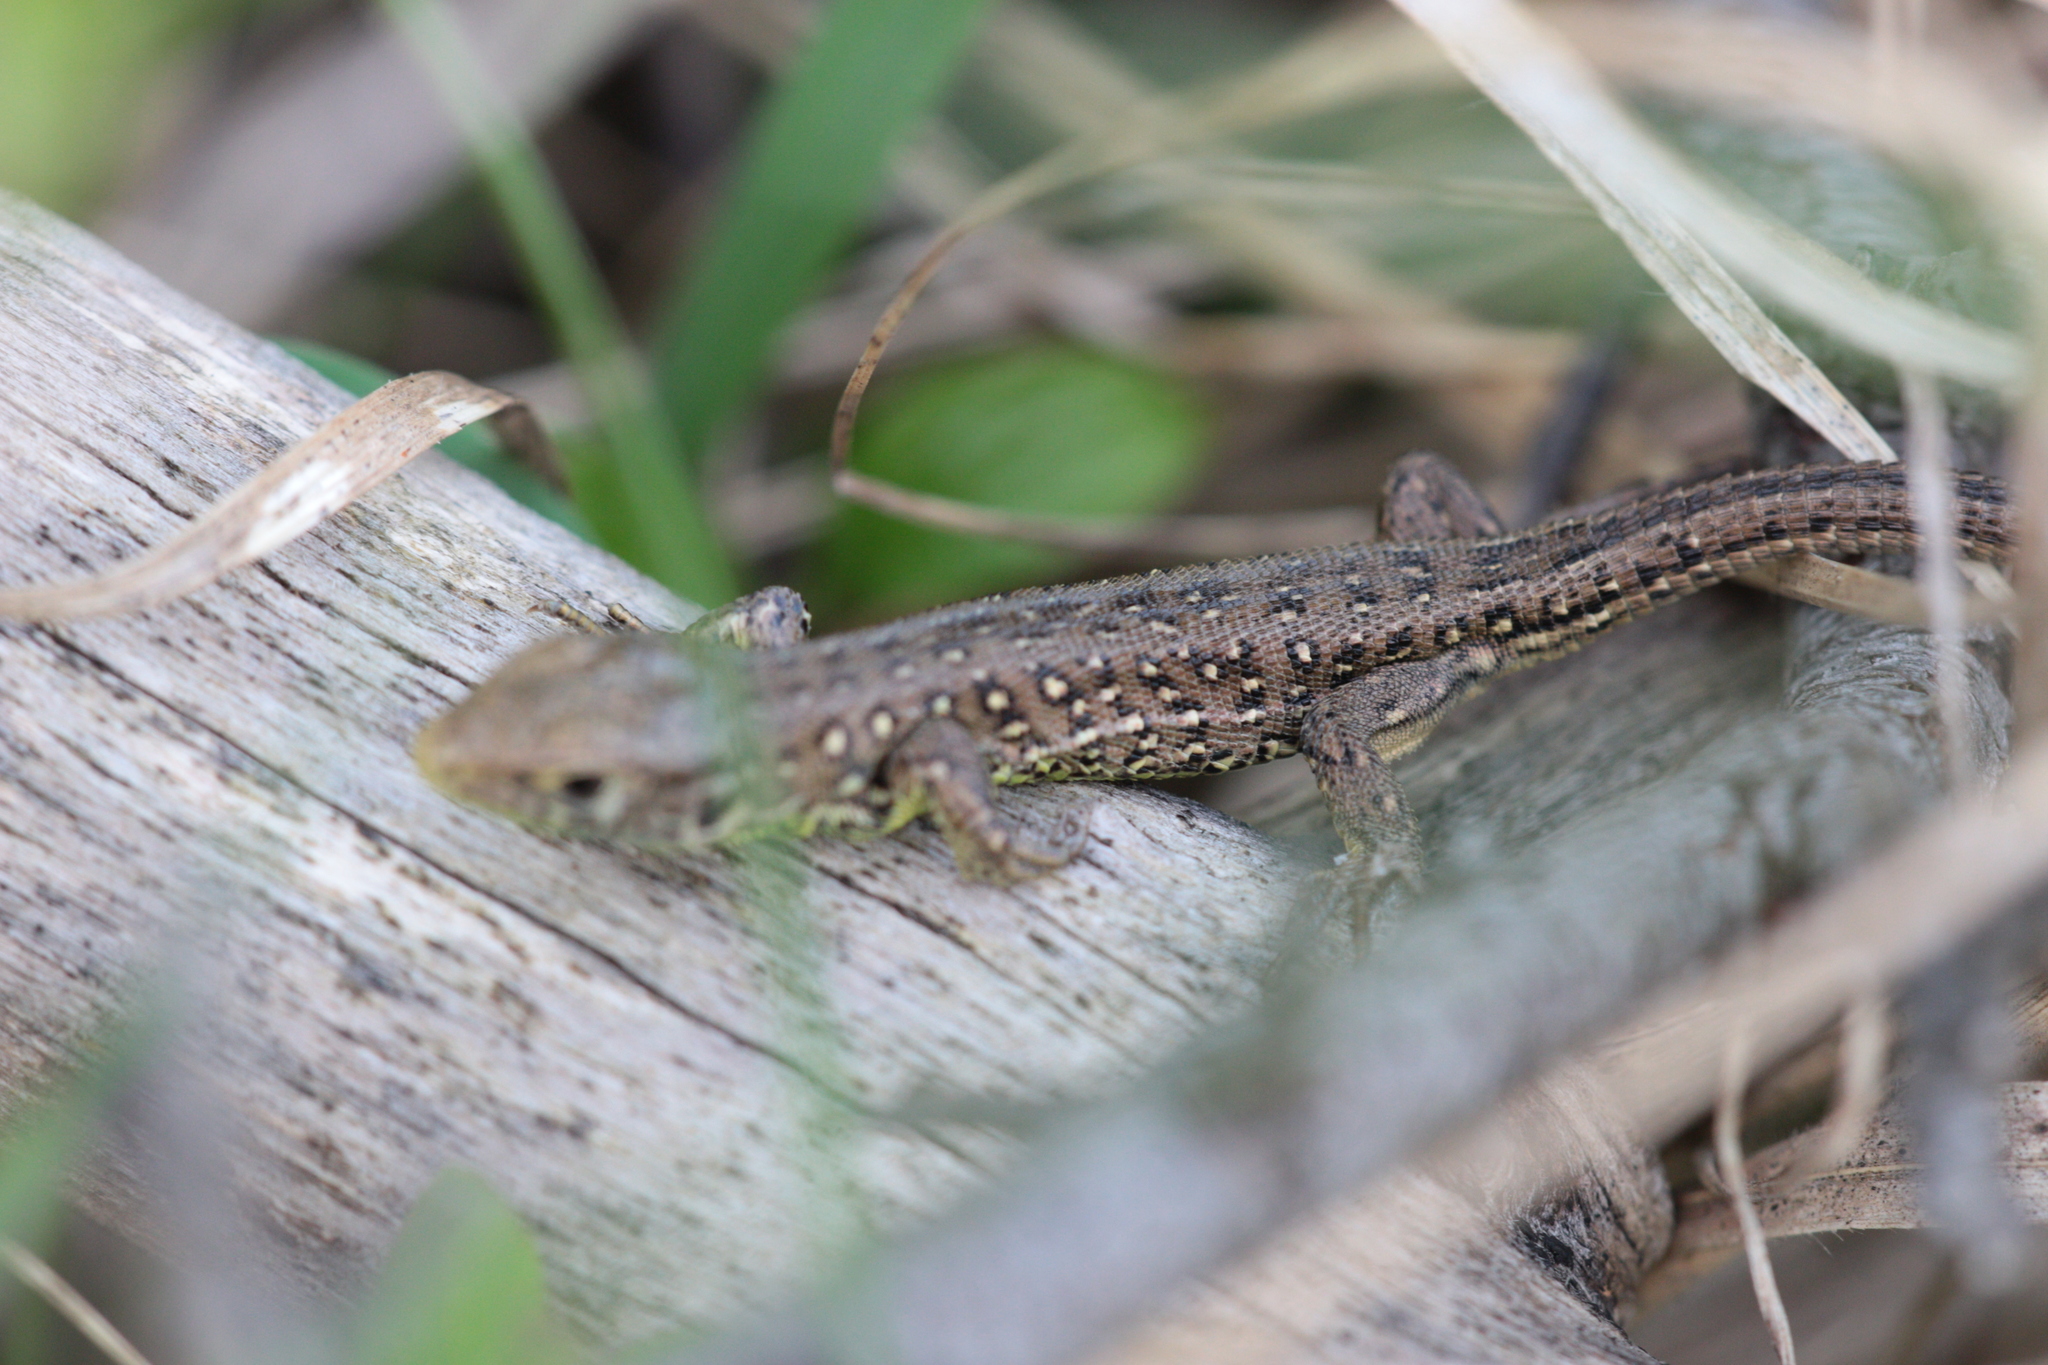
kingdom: Animalia
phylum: Chordata
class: Squamata
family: Lacertidae
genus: Lacerta
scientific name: Lacerta agilis
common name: Sand lizard
